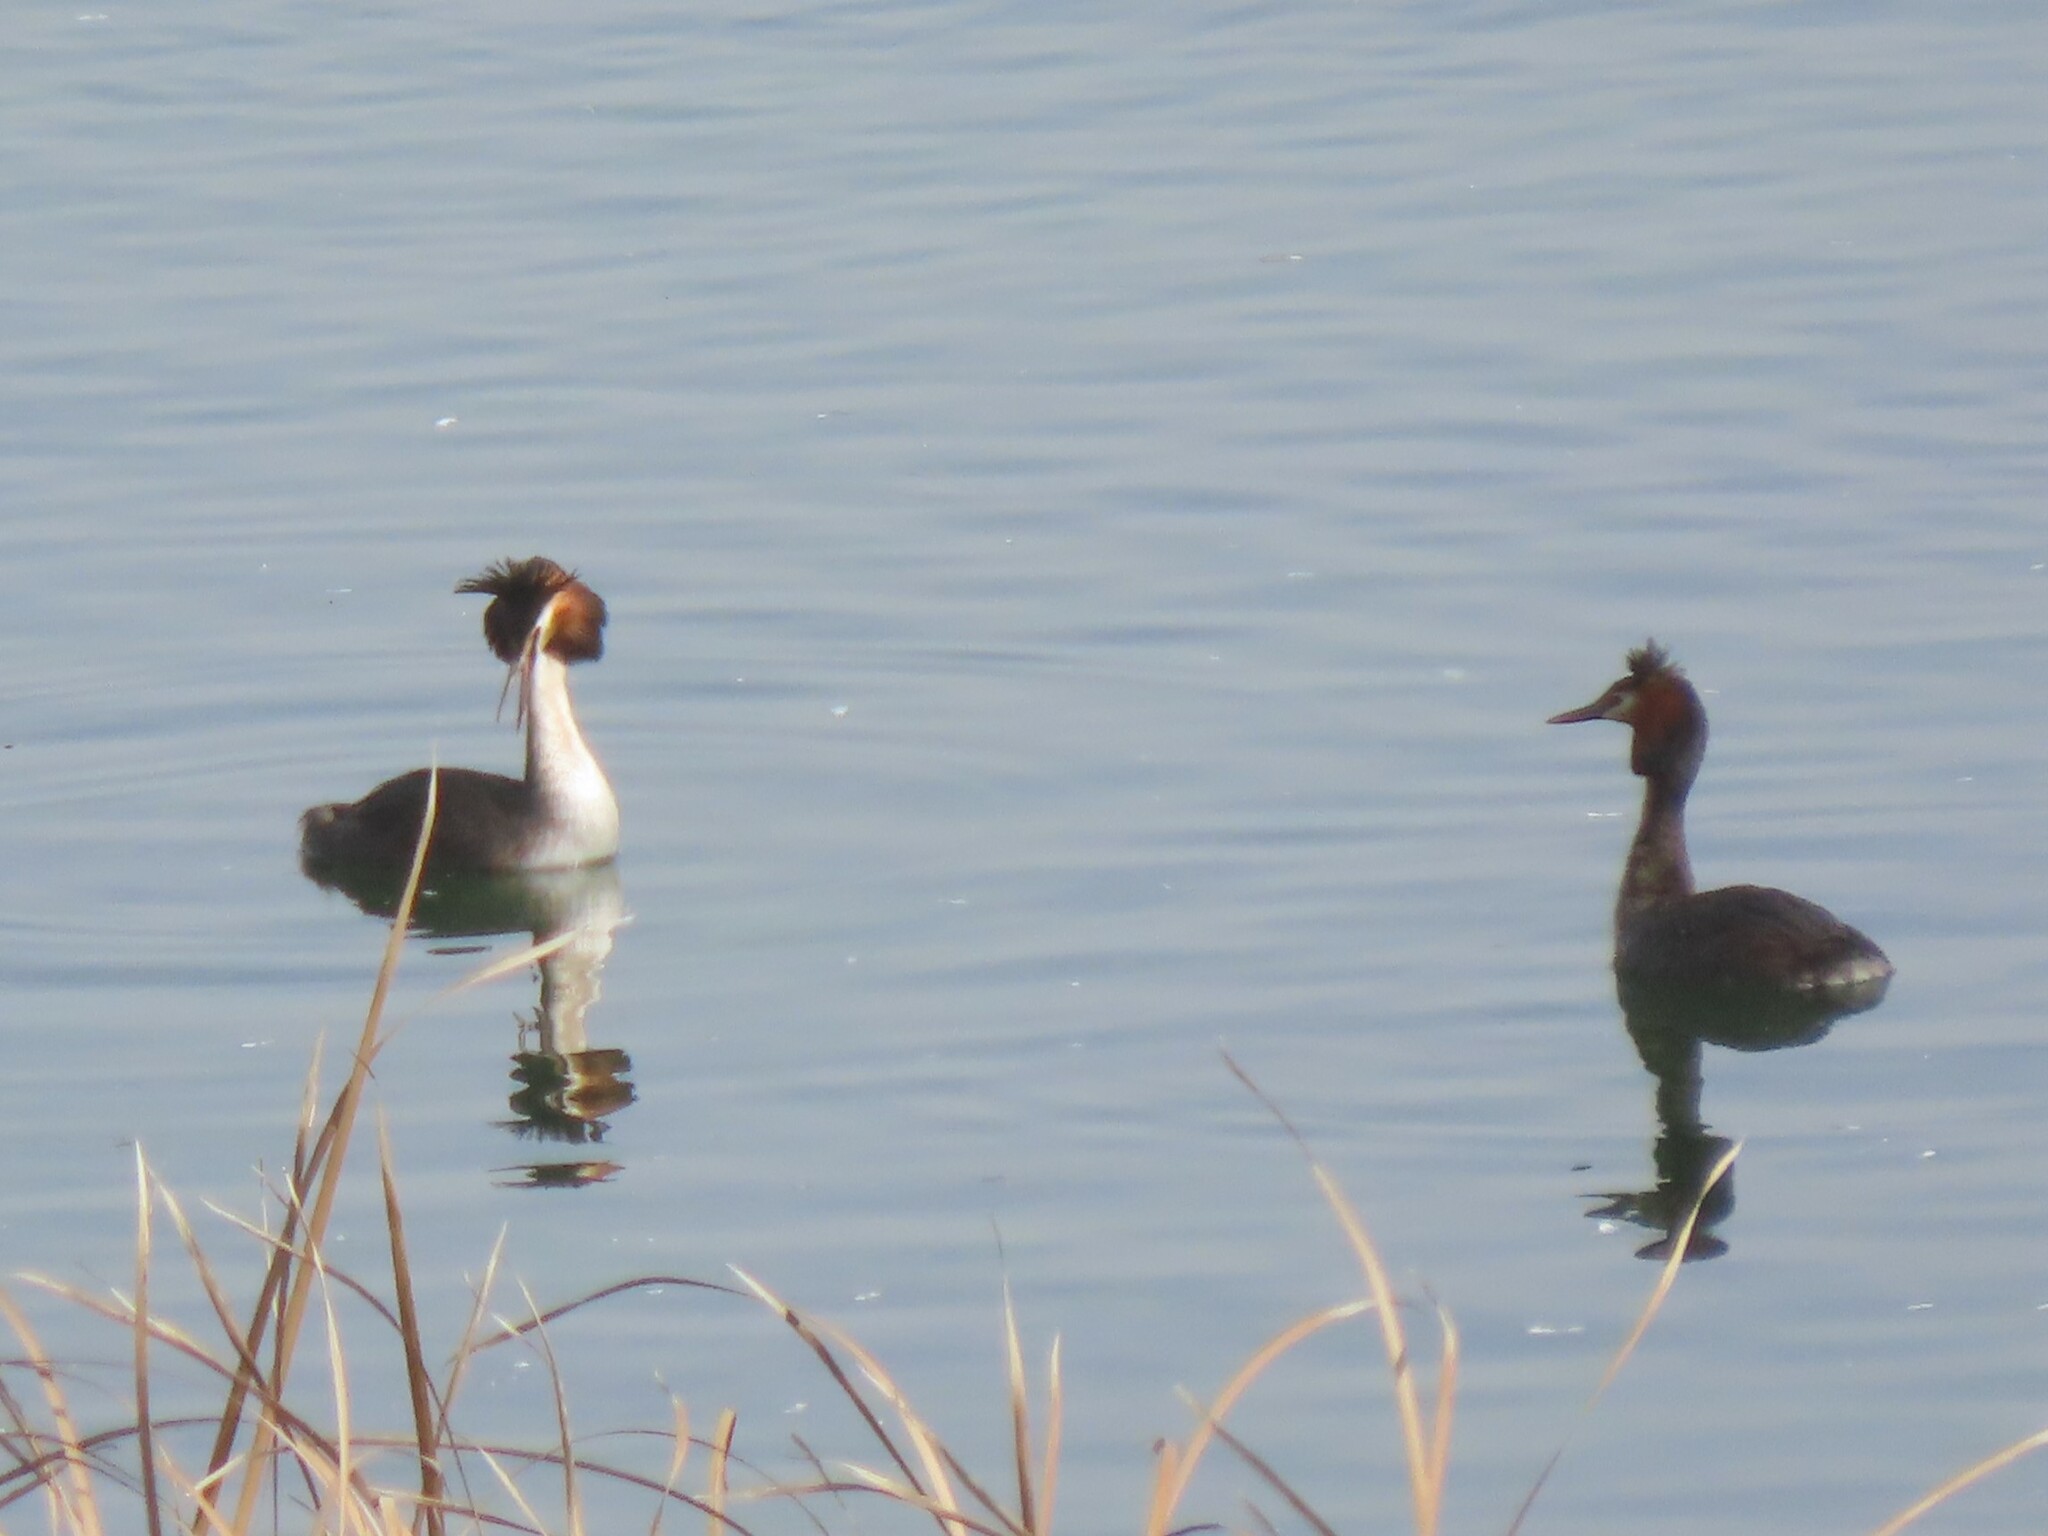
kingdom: Animalia
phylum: Chordata
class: Aves
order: Podicipediformes
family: Podicipedidae
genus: Podiceps
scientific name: Podiceps cristatus
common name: Great crested grebe
